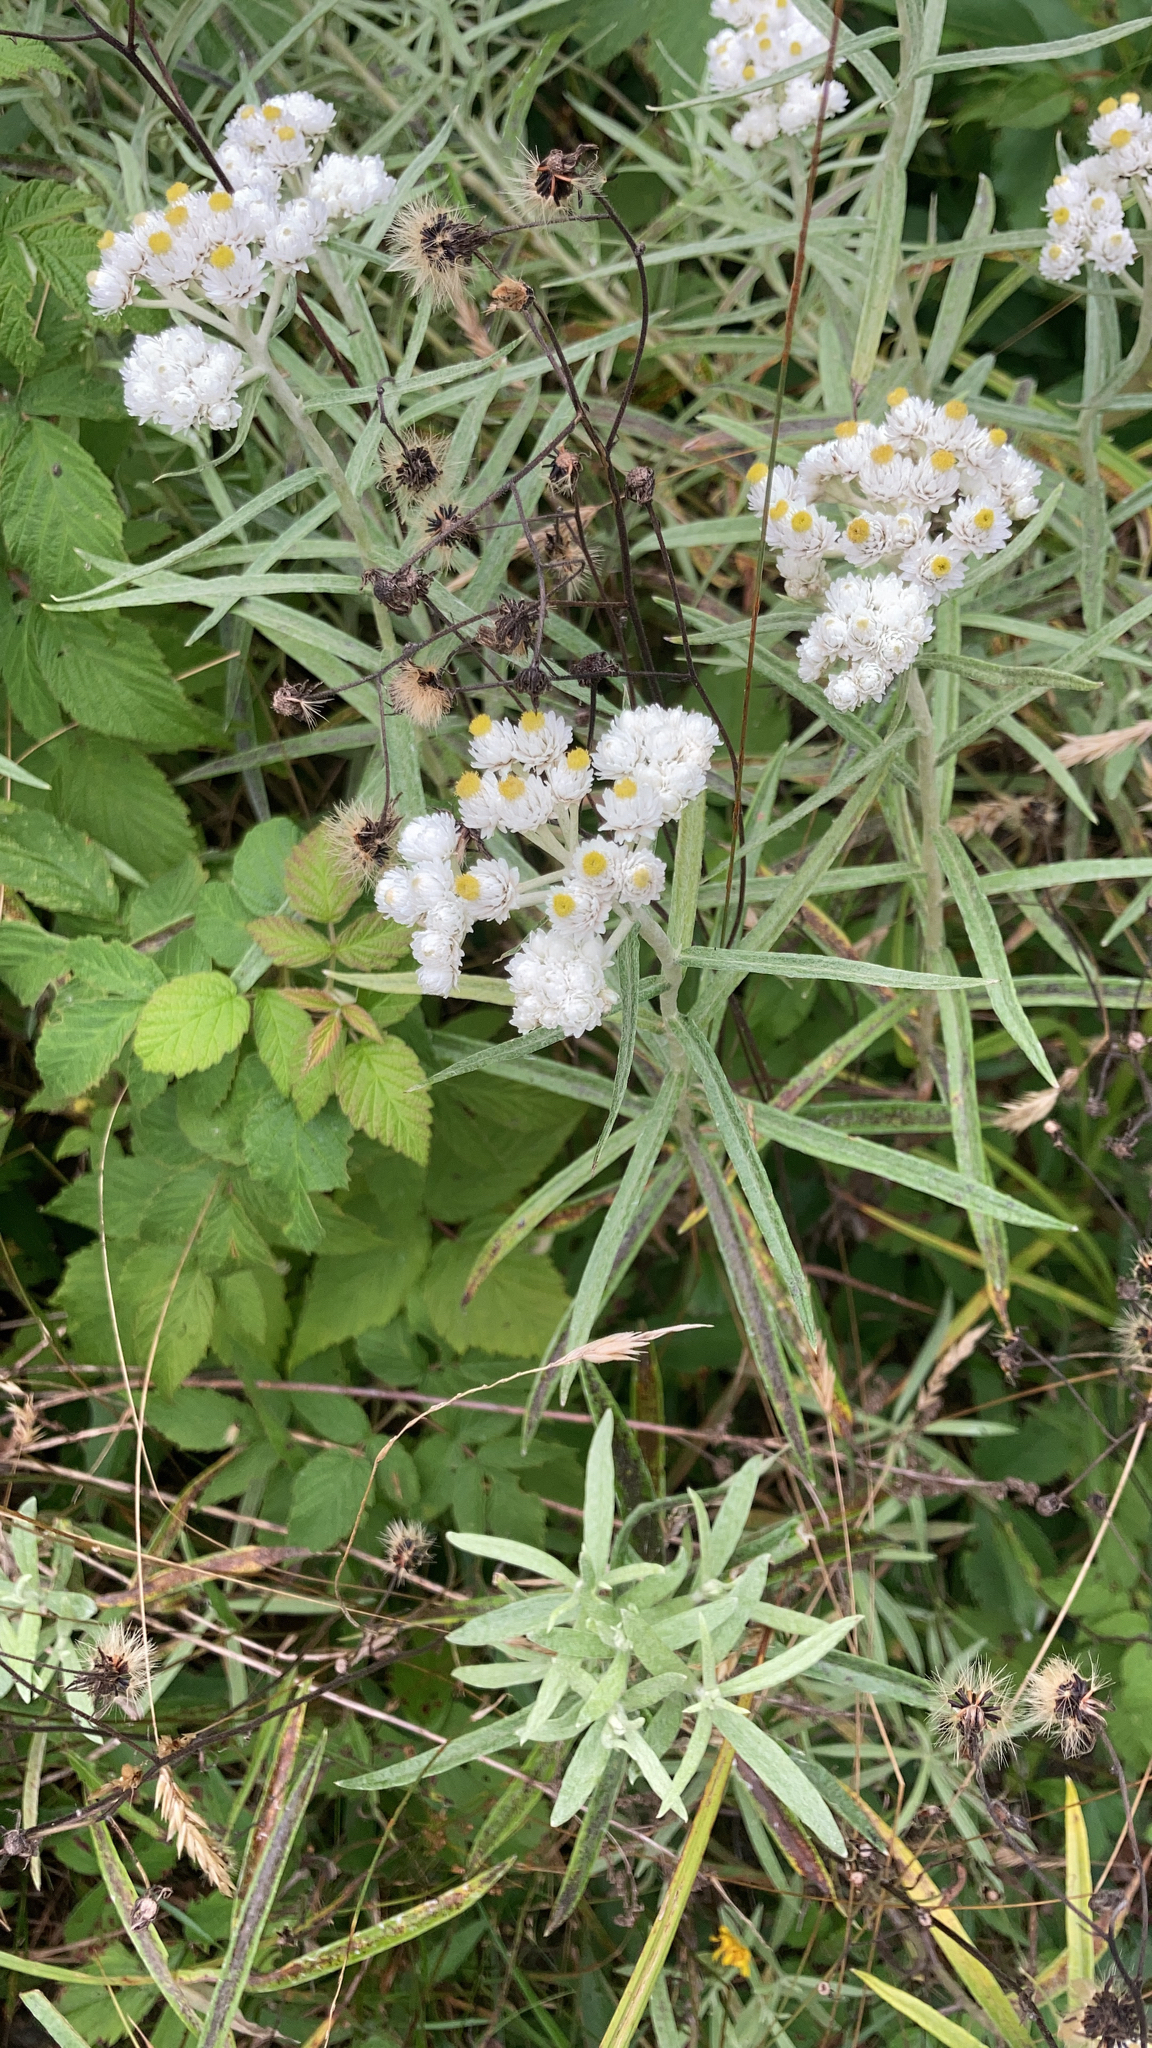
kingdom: Plantae
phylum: Tracheophyta
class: Magnoliopsida
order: Asterales
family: Asteraceae
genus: Anaphalis
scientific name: Anaphalis margaritacea
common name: Pearly everlasting
